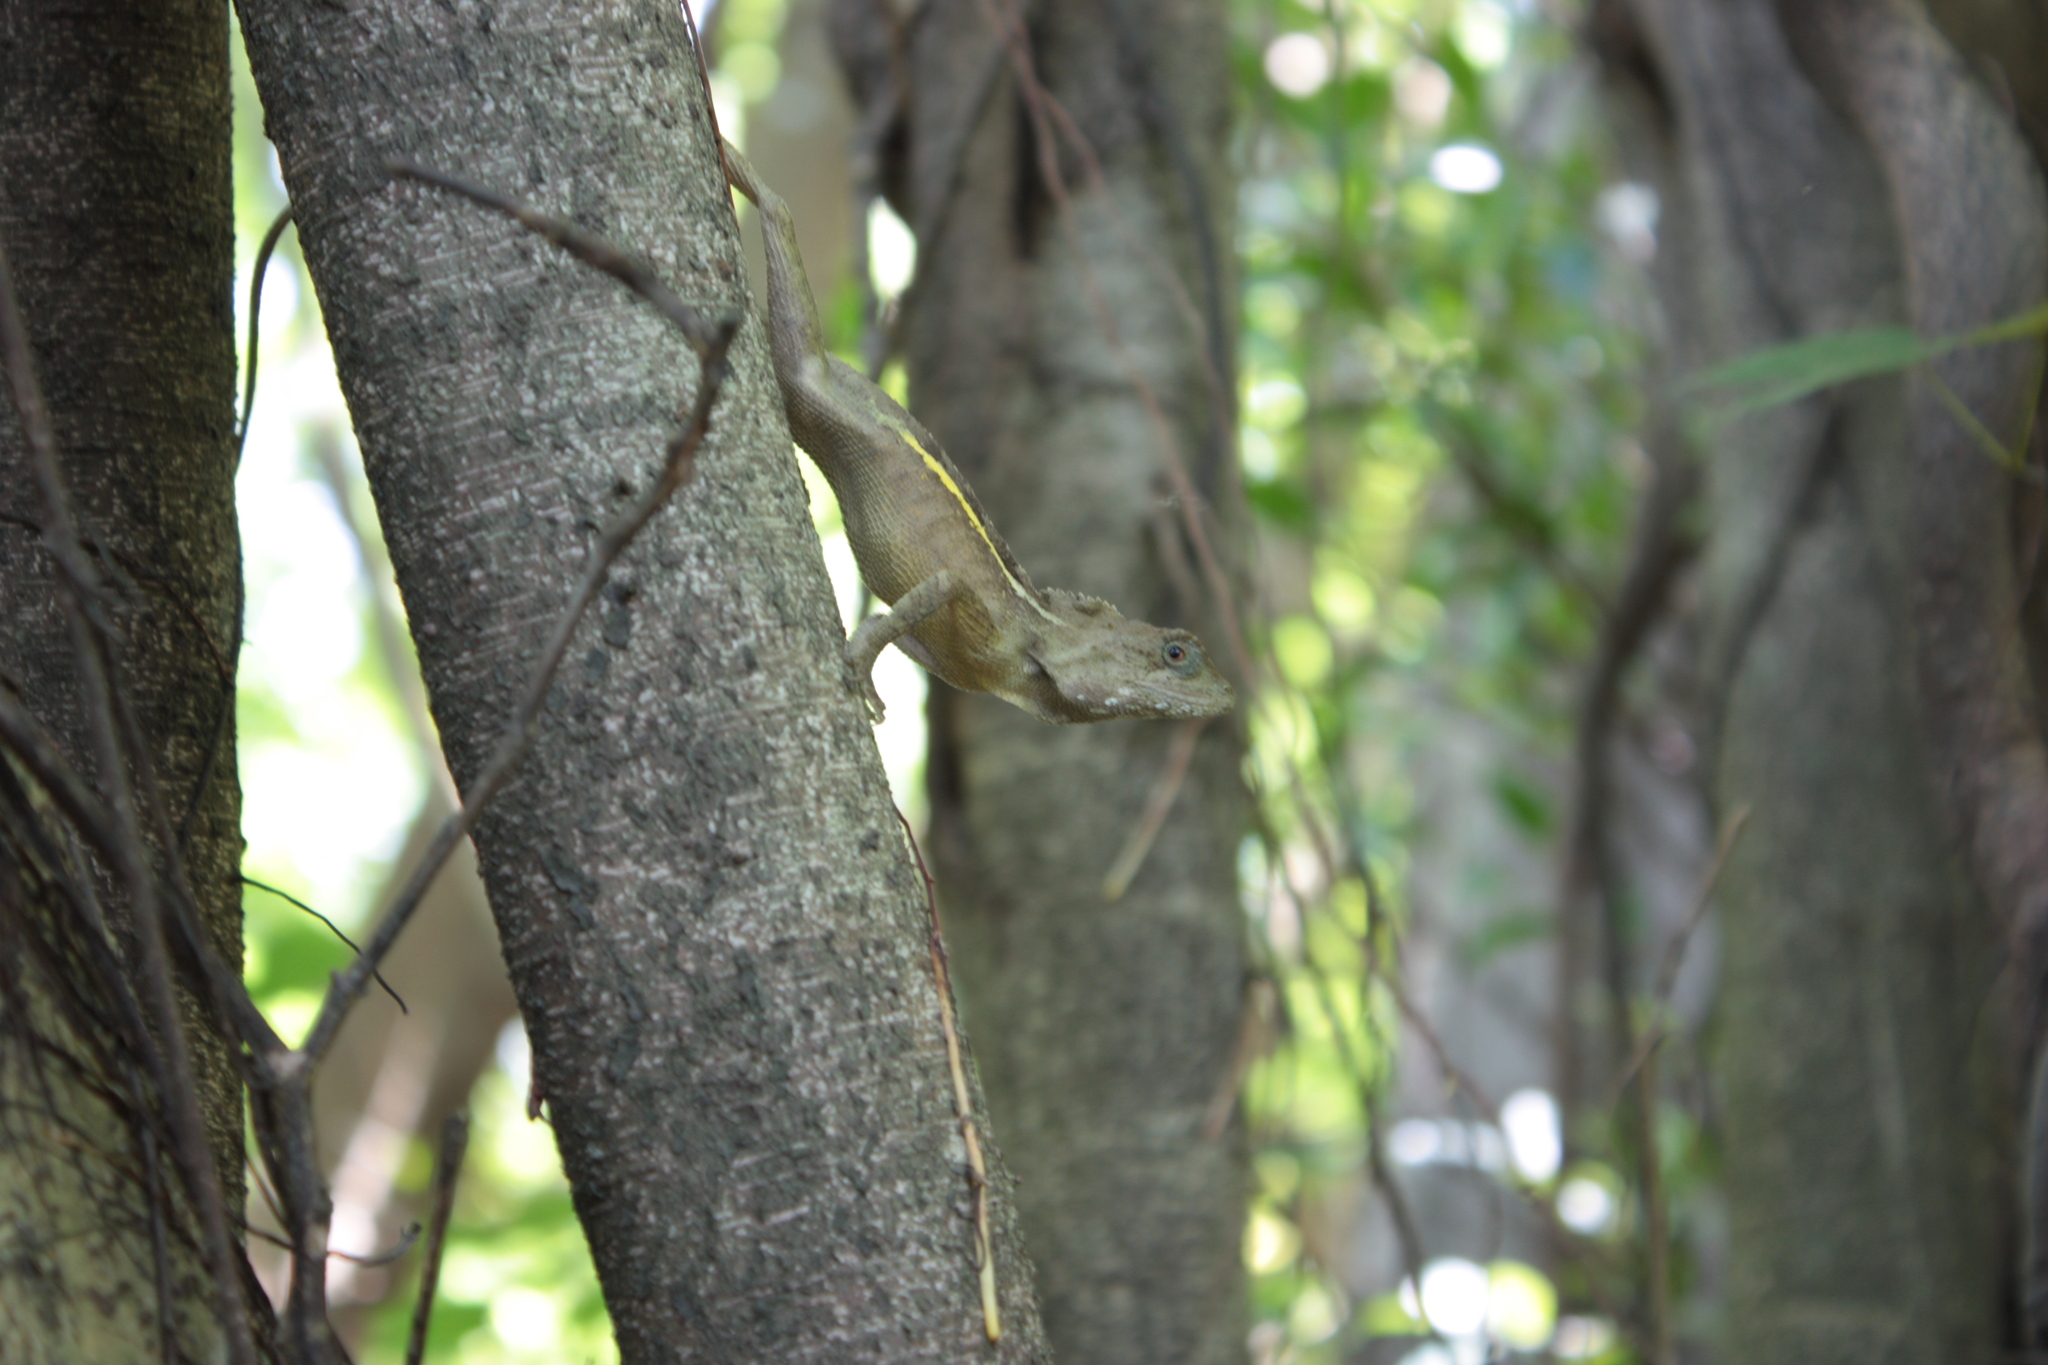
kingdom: Animalia
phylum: Chordata
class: Squamata
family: Agamidae
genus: Diploderma
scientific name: Diploderma swinhonis
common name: Taiwan japalure
